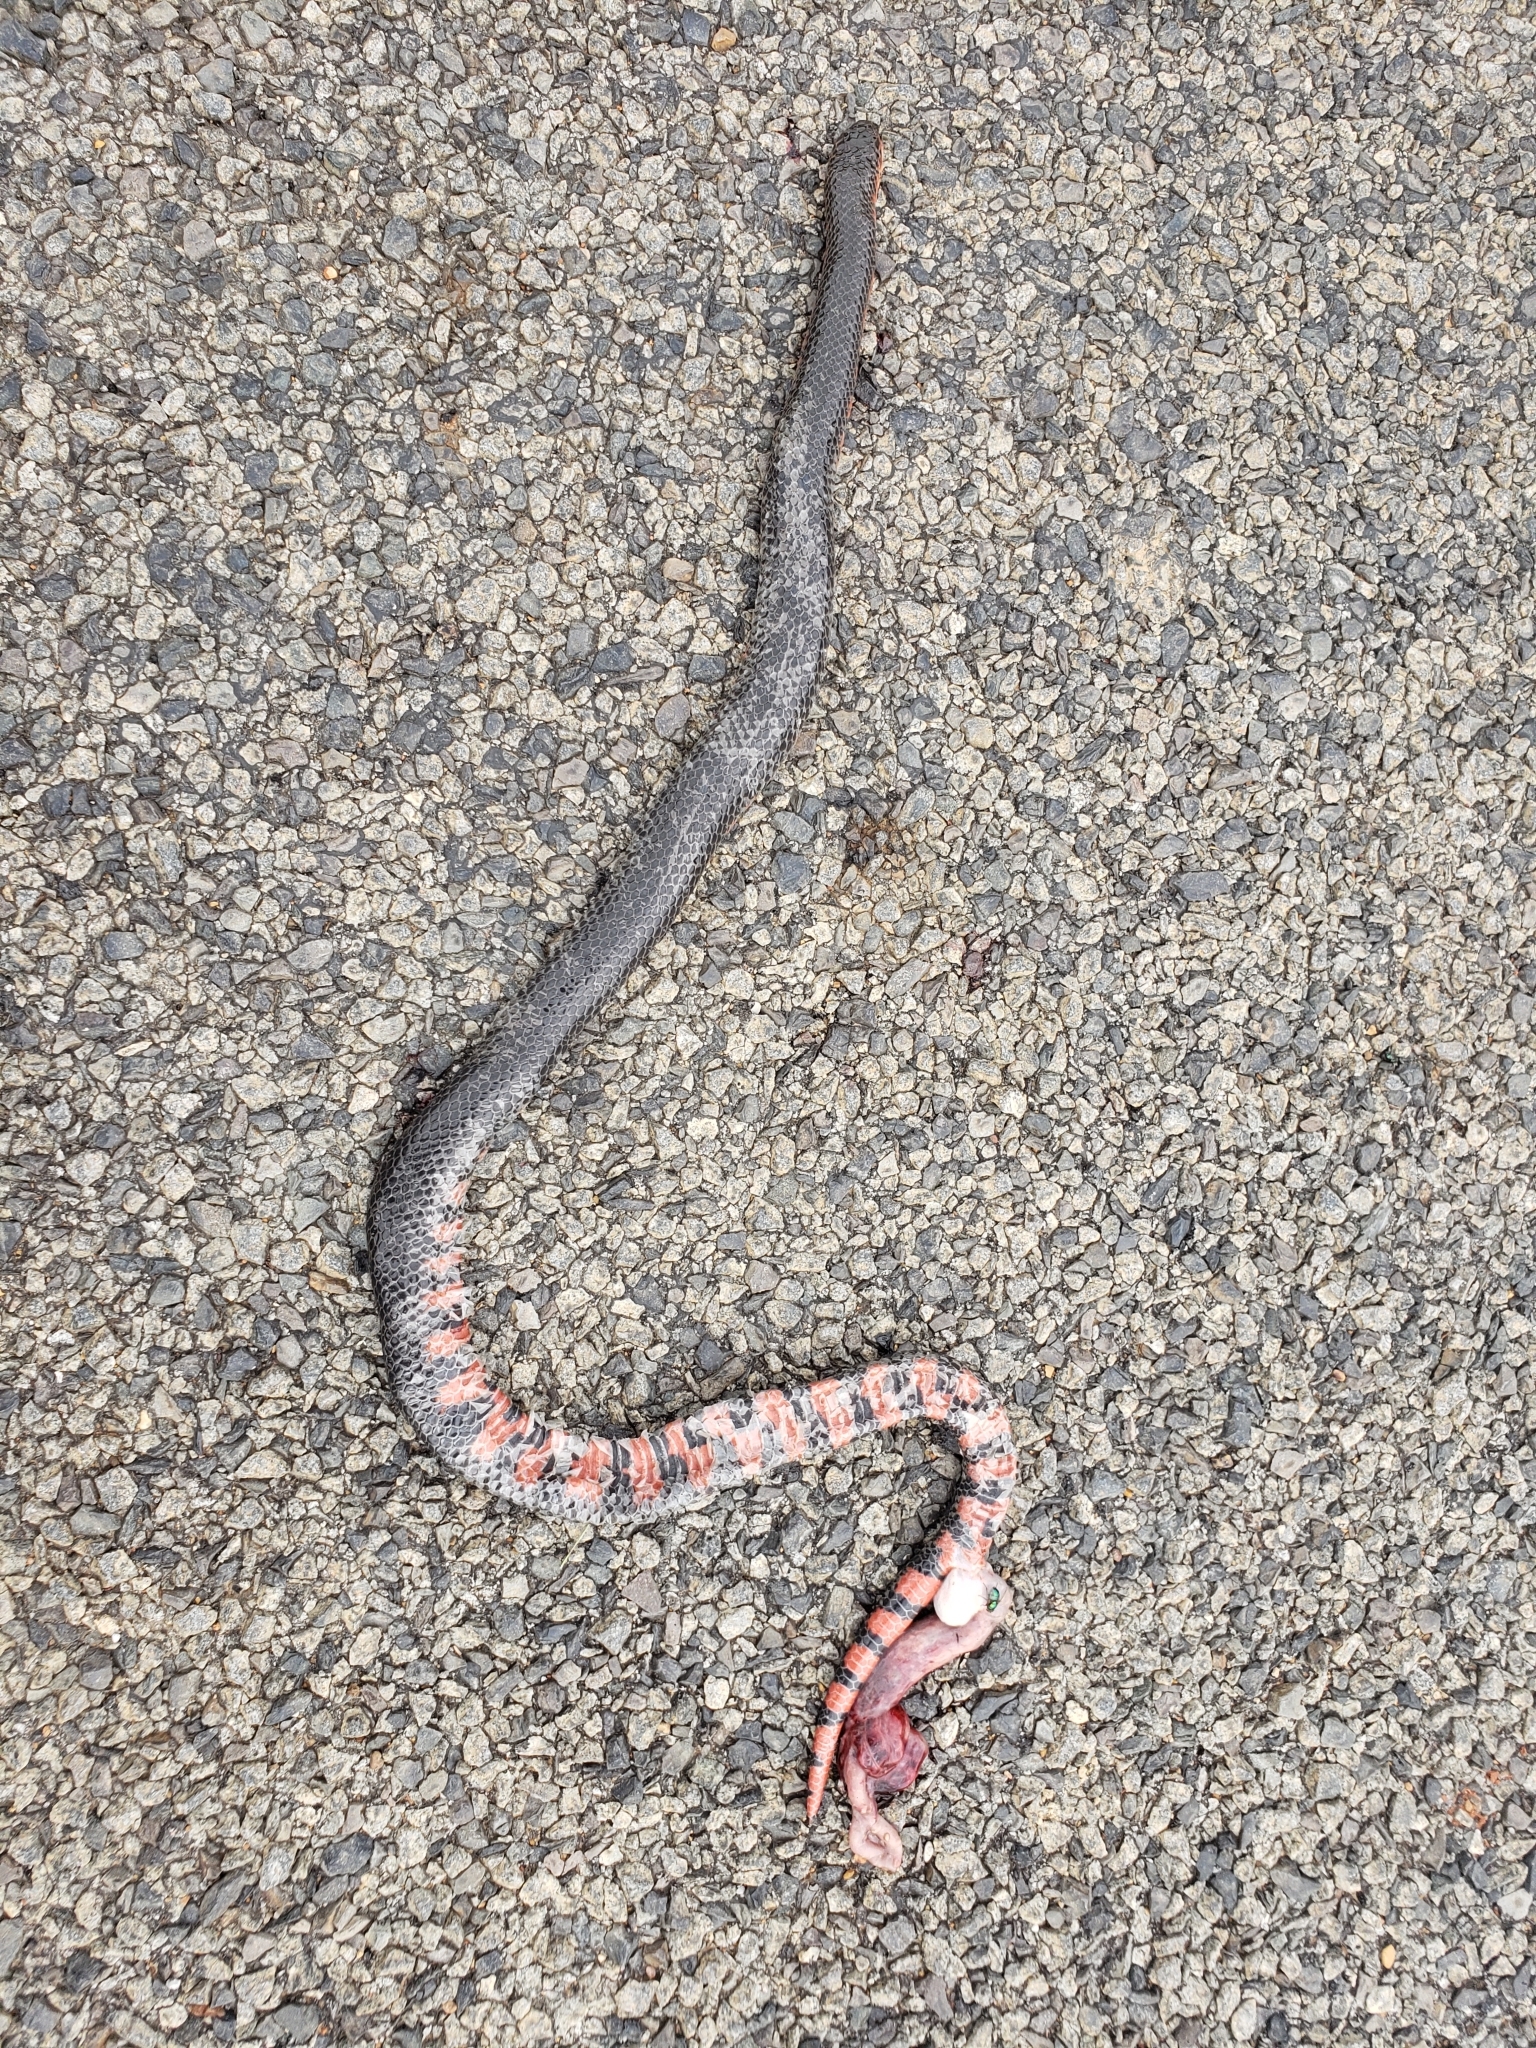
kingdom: Animalia
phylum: Chordata
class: Squamata
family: Colubridae
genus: Farancia
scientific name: Farancia abacura
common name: Mud snake
